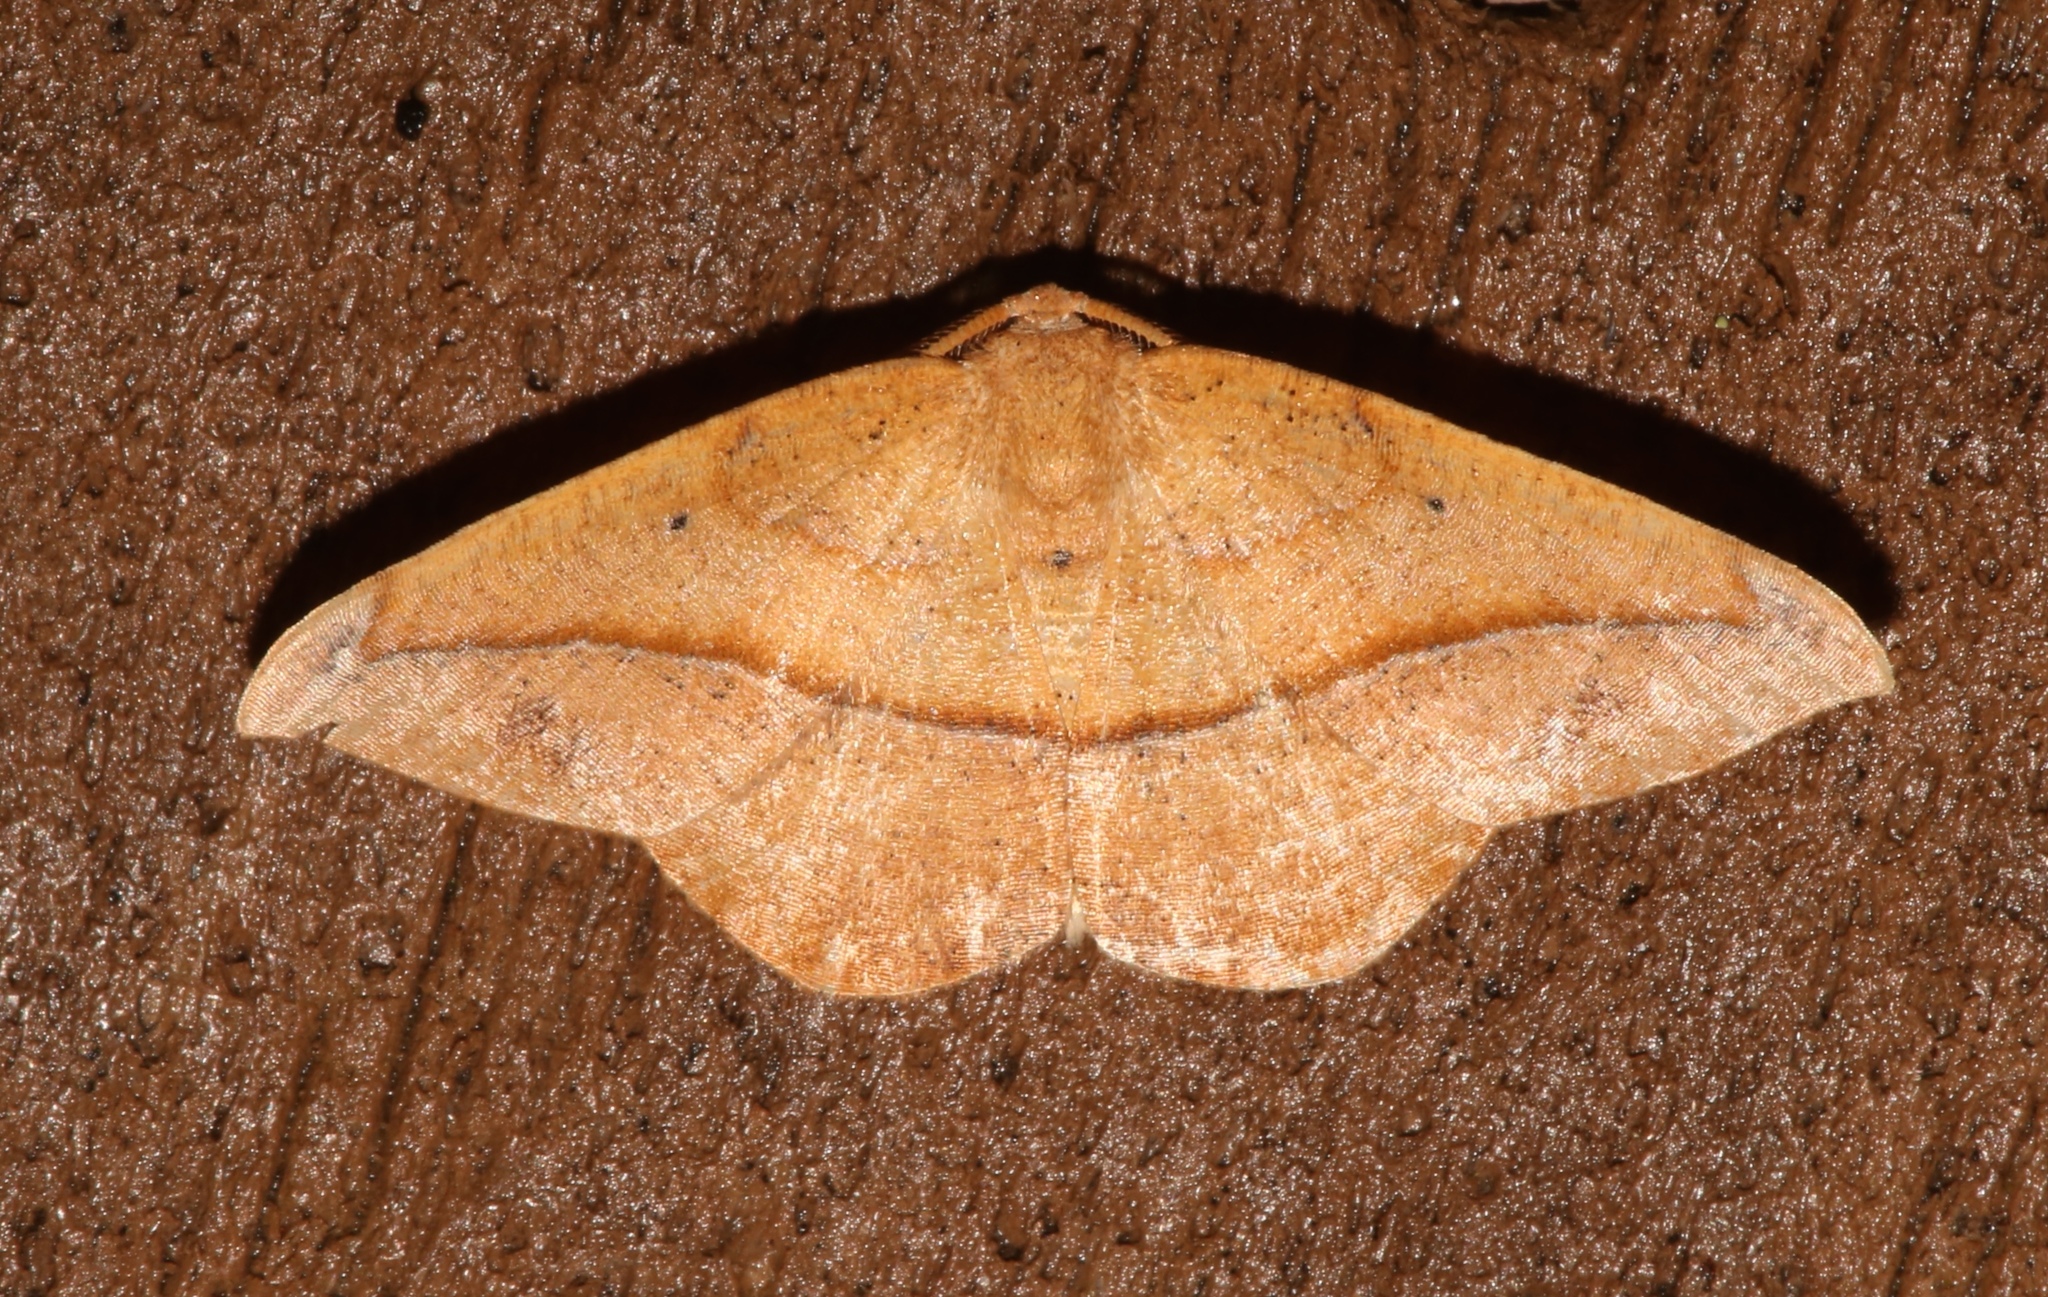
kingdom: Animalia
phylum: Arthropoda
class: Insecta
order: Lepidoptera
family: Geometridae
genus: Patalene
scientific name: Patalene olyzonaria
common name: Juniper geometer moth
